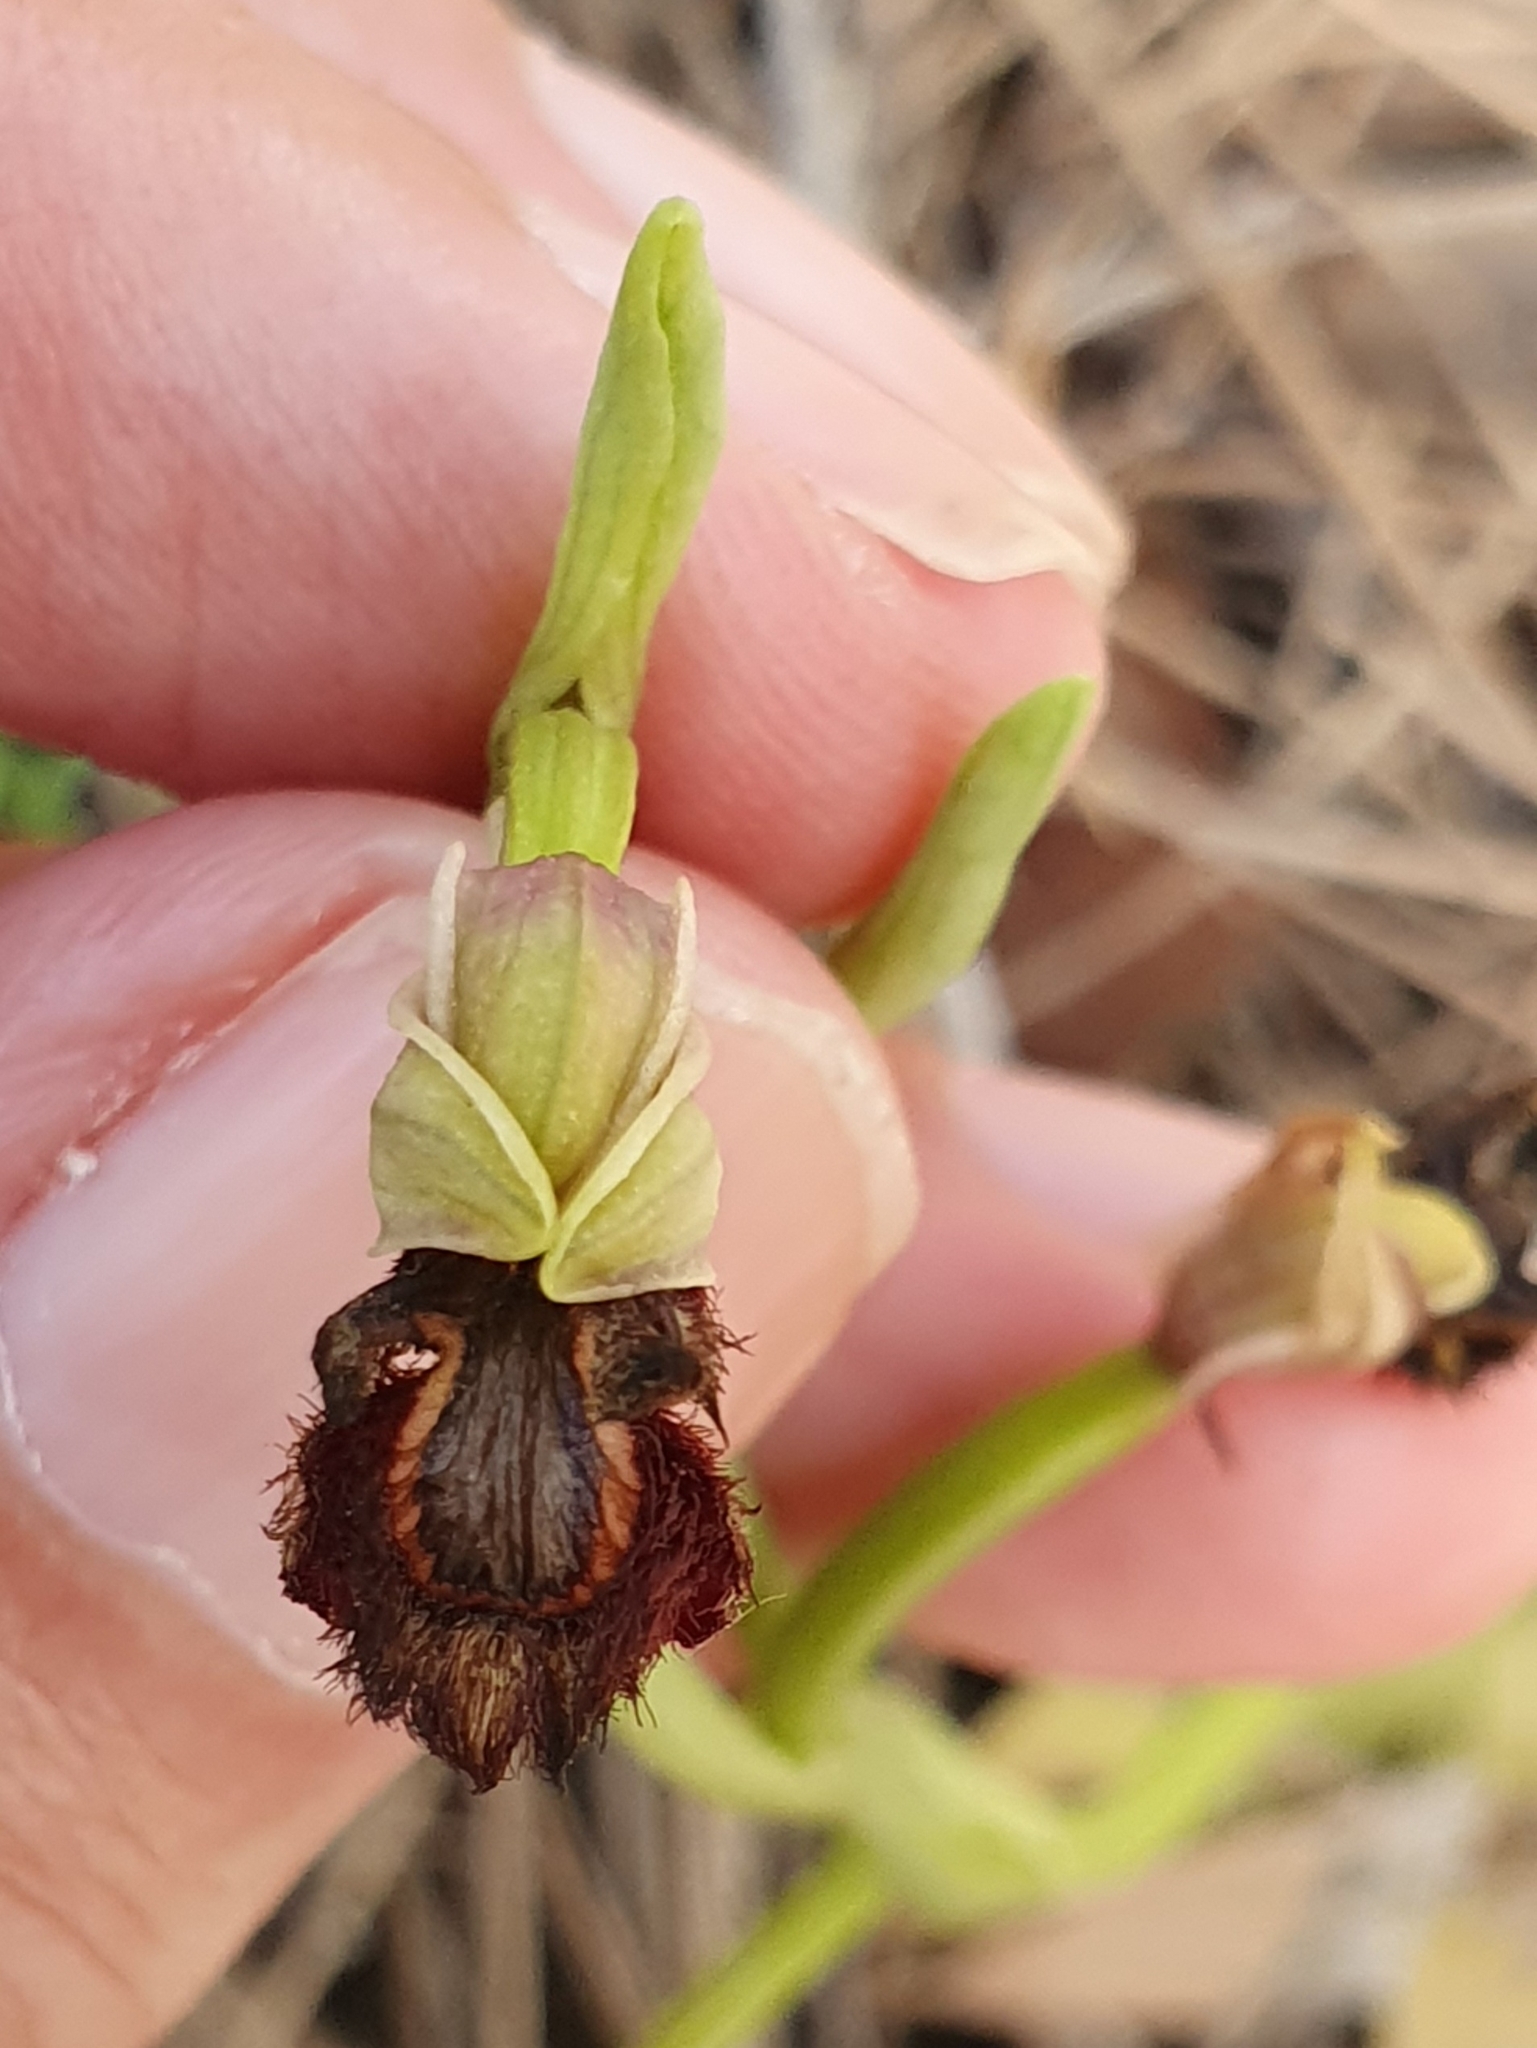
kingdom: Plantae
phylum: Tracheophyta
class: Liliopsida
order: Asparagales
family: Orchidaceae
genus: Ophrys
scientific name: Ophrys speculum
